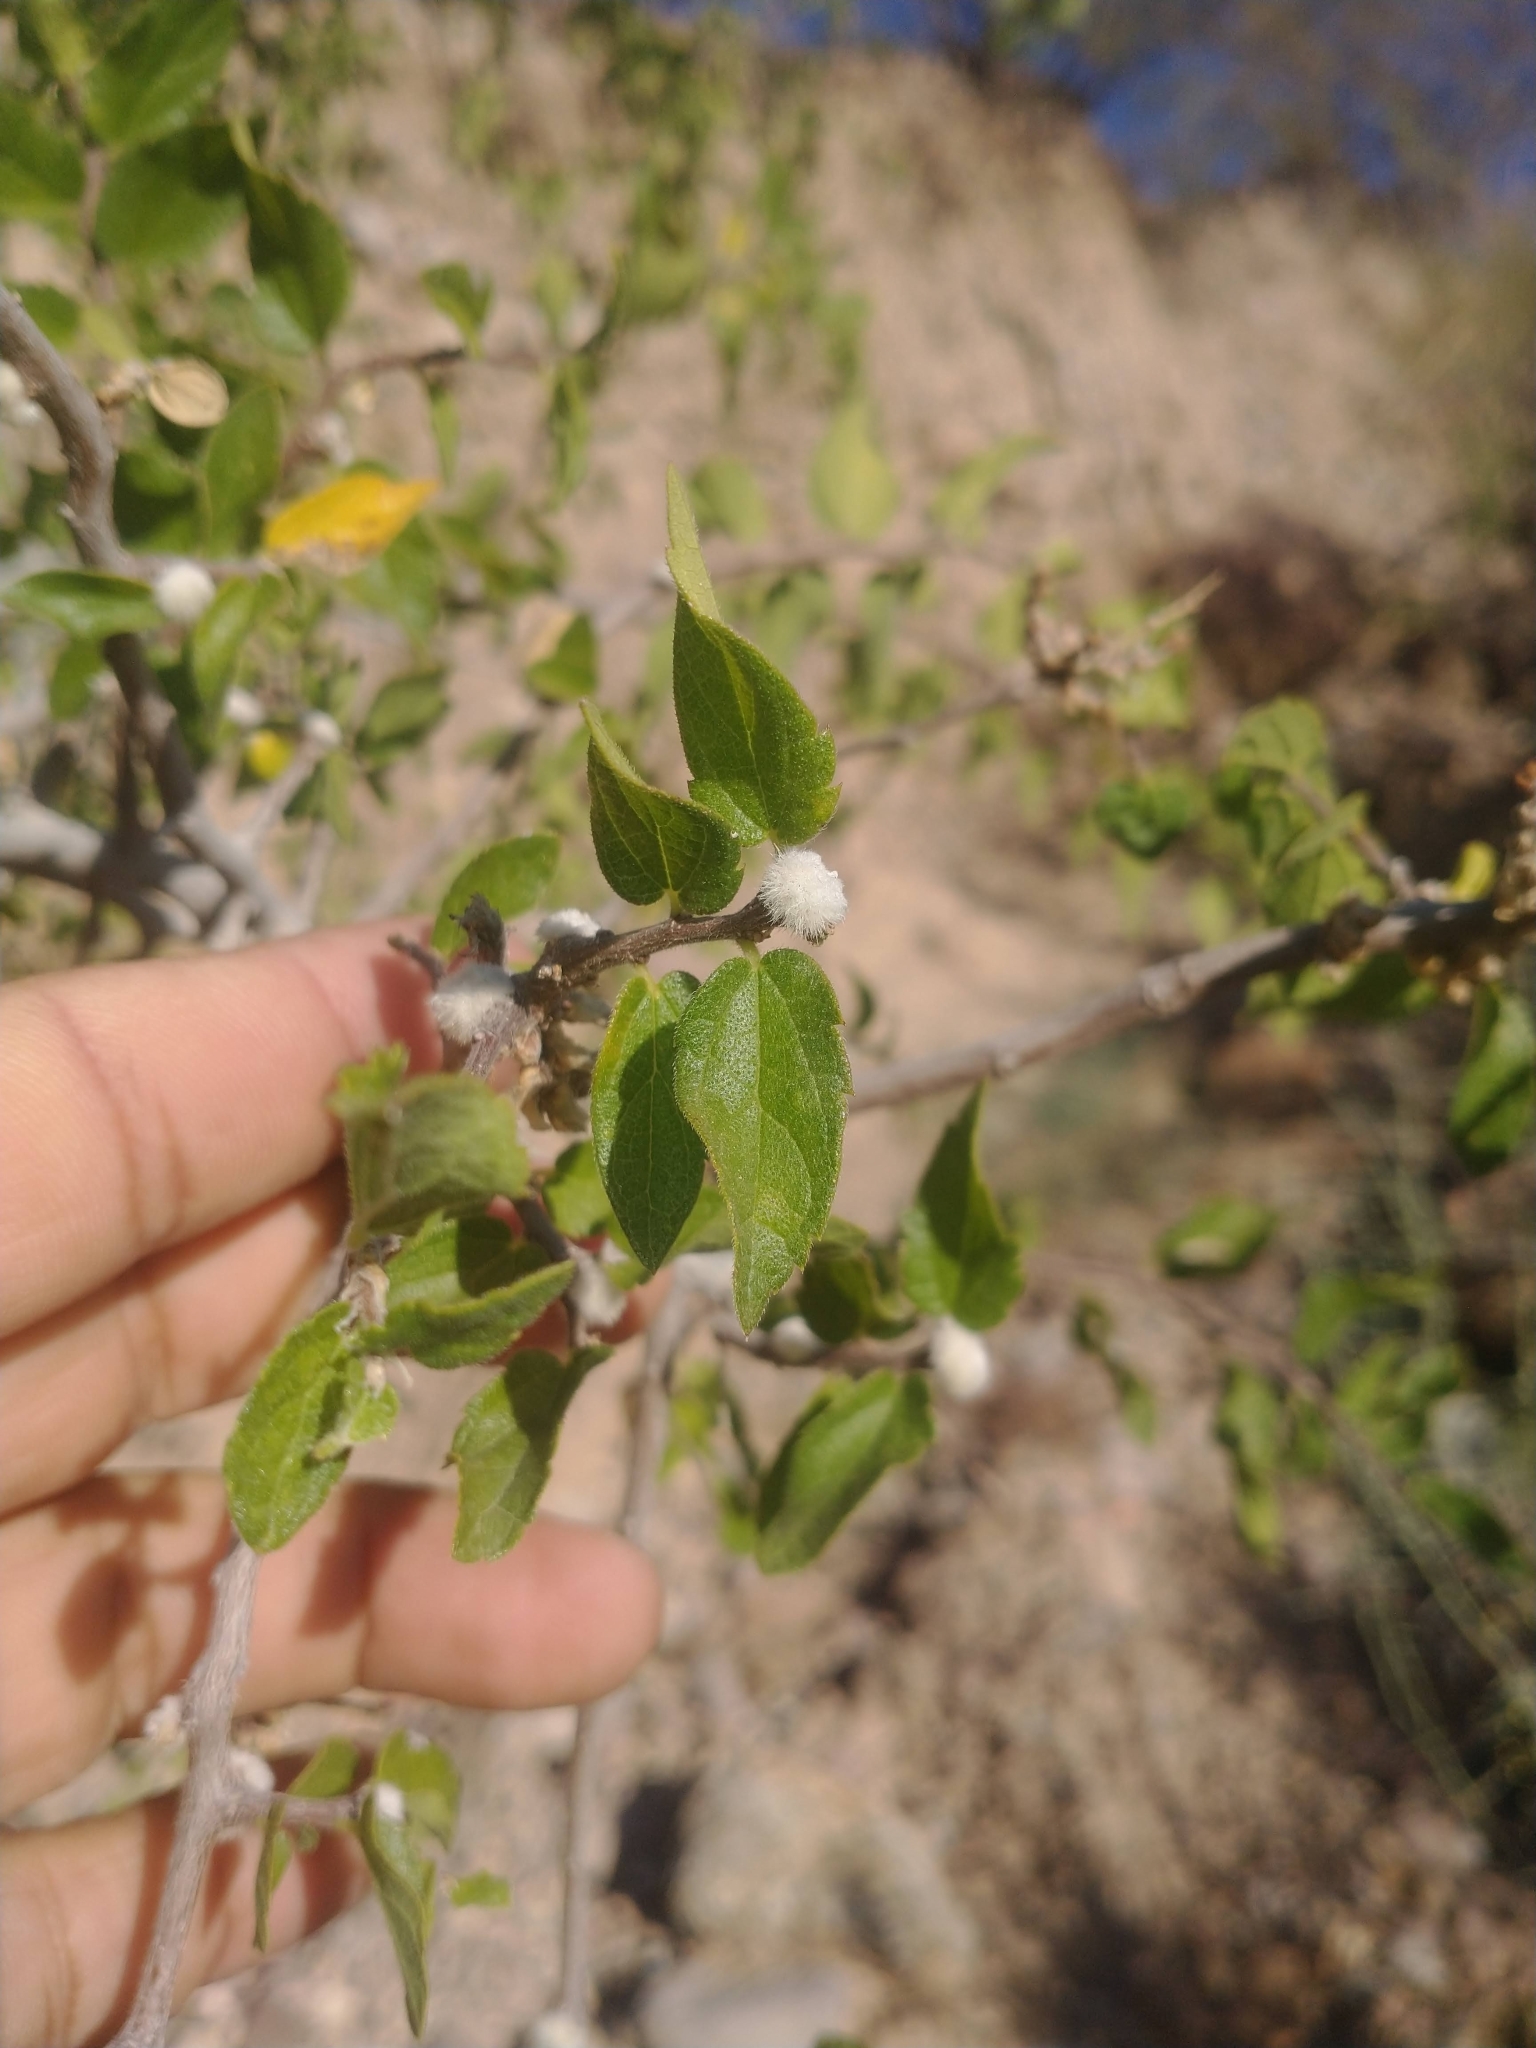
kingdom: Plantae
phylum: Tracheophyta
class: Magnoliopsida
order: Rosales
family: Cannabaceae
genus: Celtis
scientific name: Celtis reticulata
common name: Netleaf hackberry
